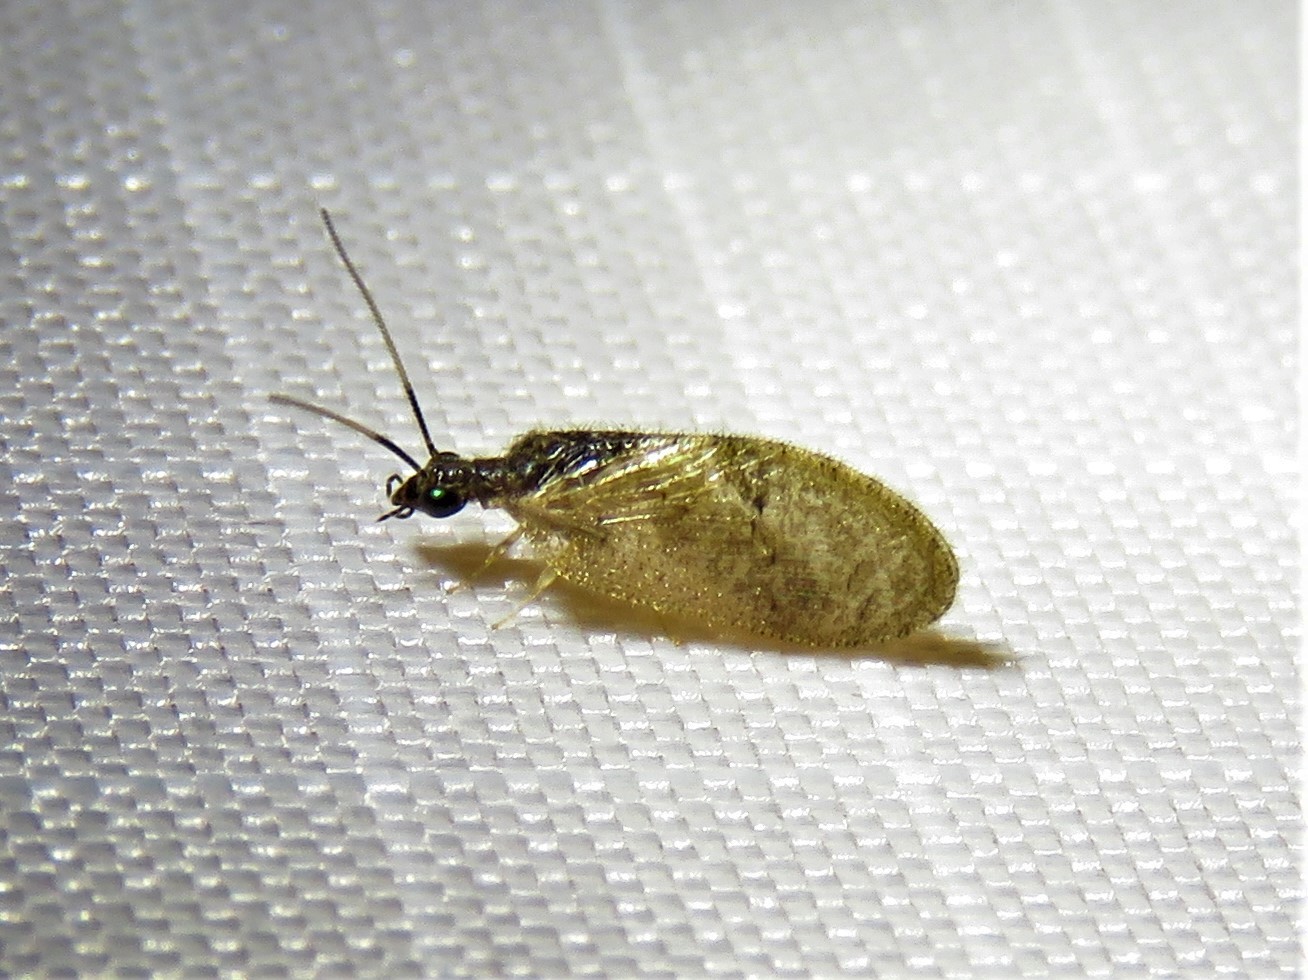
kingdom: Animalia
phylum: Arthropoda
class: Insecta
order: Neuroptera
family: Hemerobiidae
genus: Sympherobius
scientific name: Sympherobius barberi
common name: Brown lacewing
